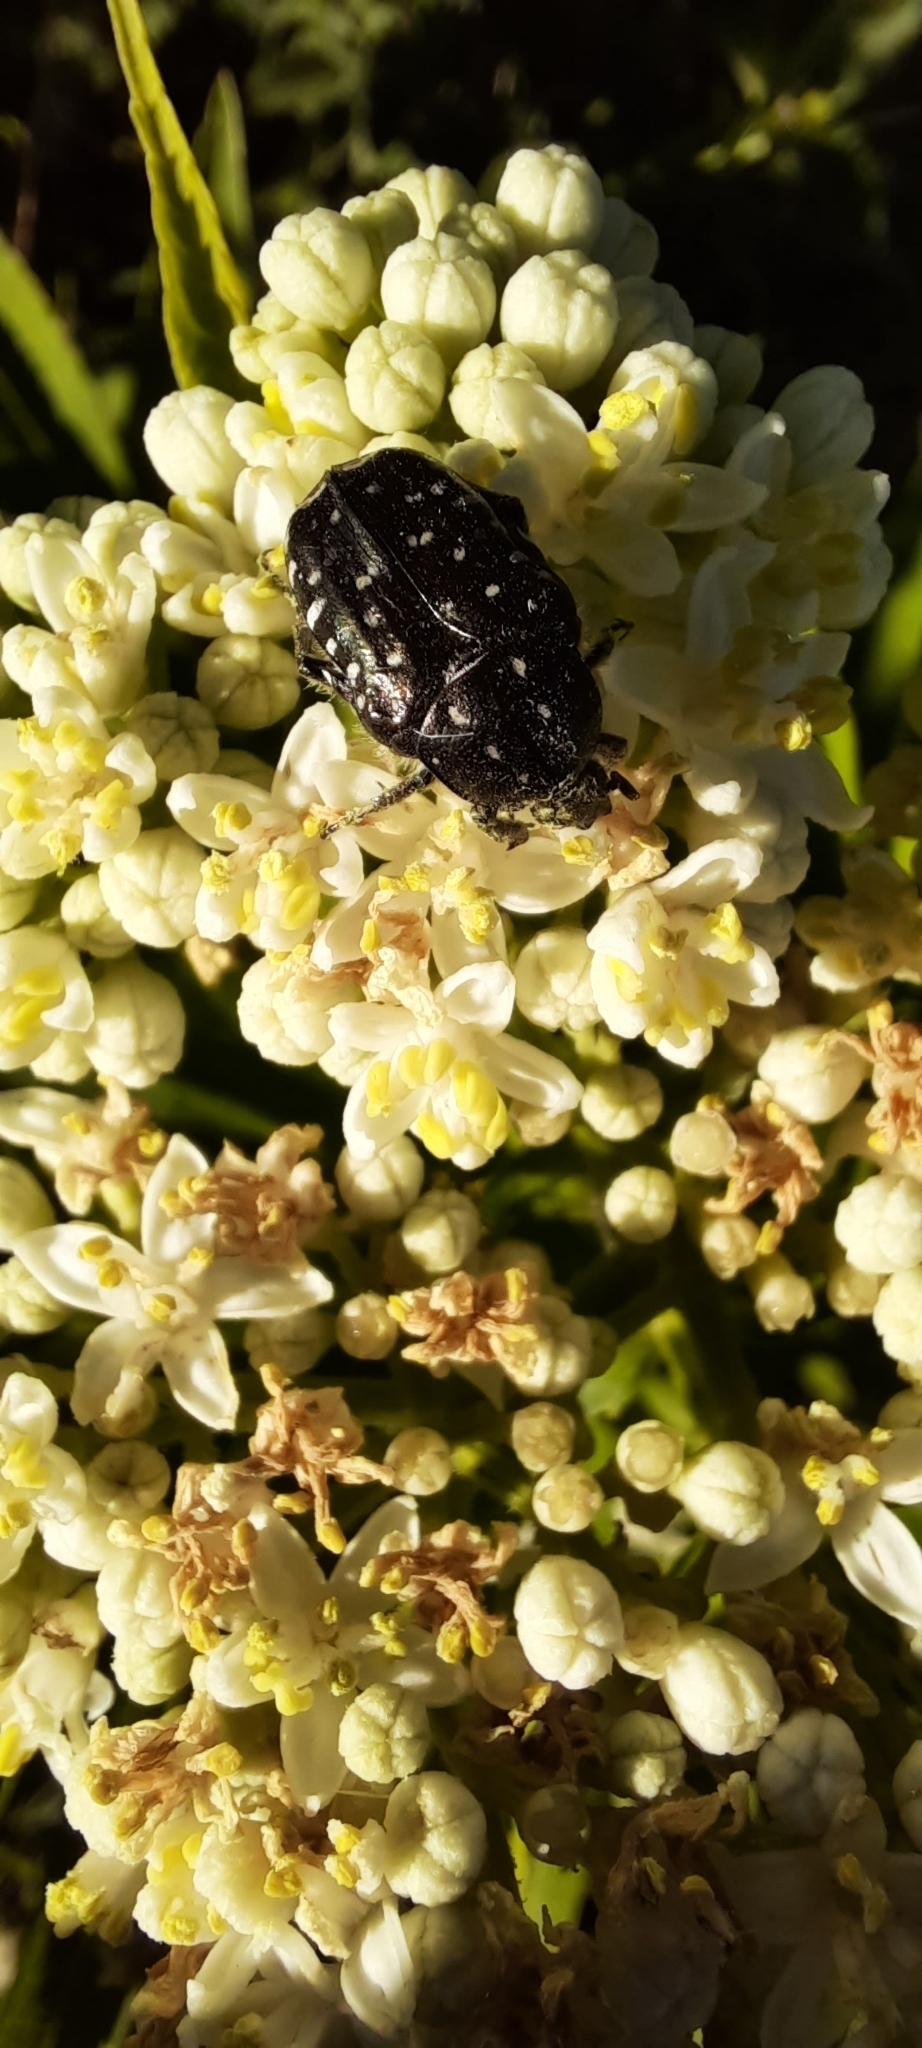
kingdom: Animalia
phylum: Arthropoda
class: Insecta
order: Coleoptera
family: Scarabaeidae
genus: Oxythyrea
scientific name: Oxythyrea funesta
